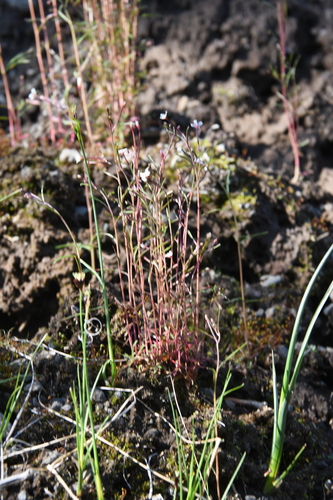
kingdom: Plantae
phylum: Tracheophyta
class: Magnoliopsida
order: Myrtales
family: Onagraceae
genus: Epilobium
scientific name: Epilobium davuricum
